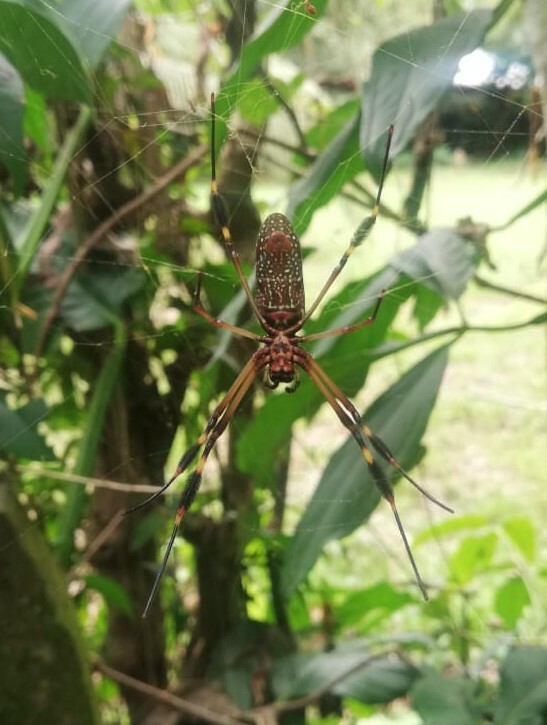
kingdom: Animalia
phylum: Arthropoda
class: Arachnida
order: Araneae
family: Araneidae
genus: Trichonephila
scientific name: Trichonephila clavipes
